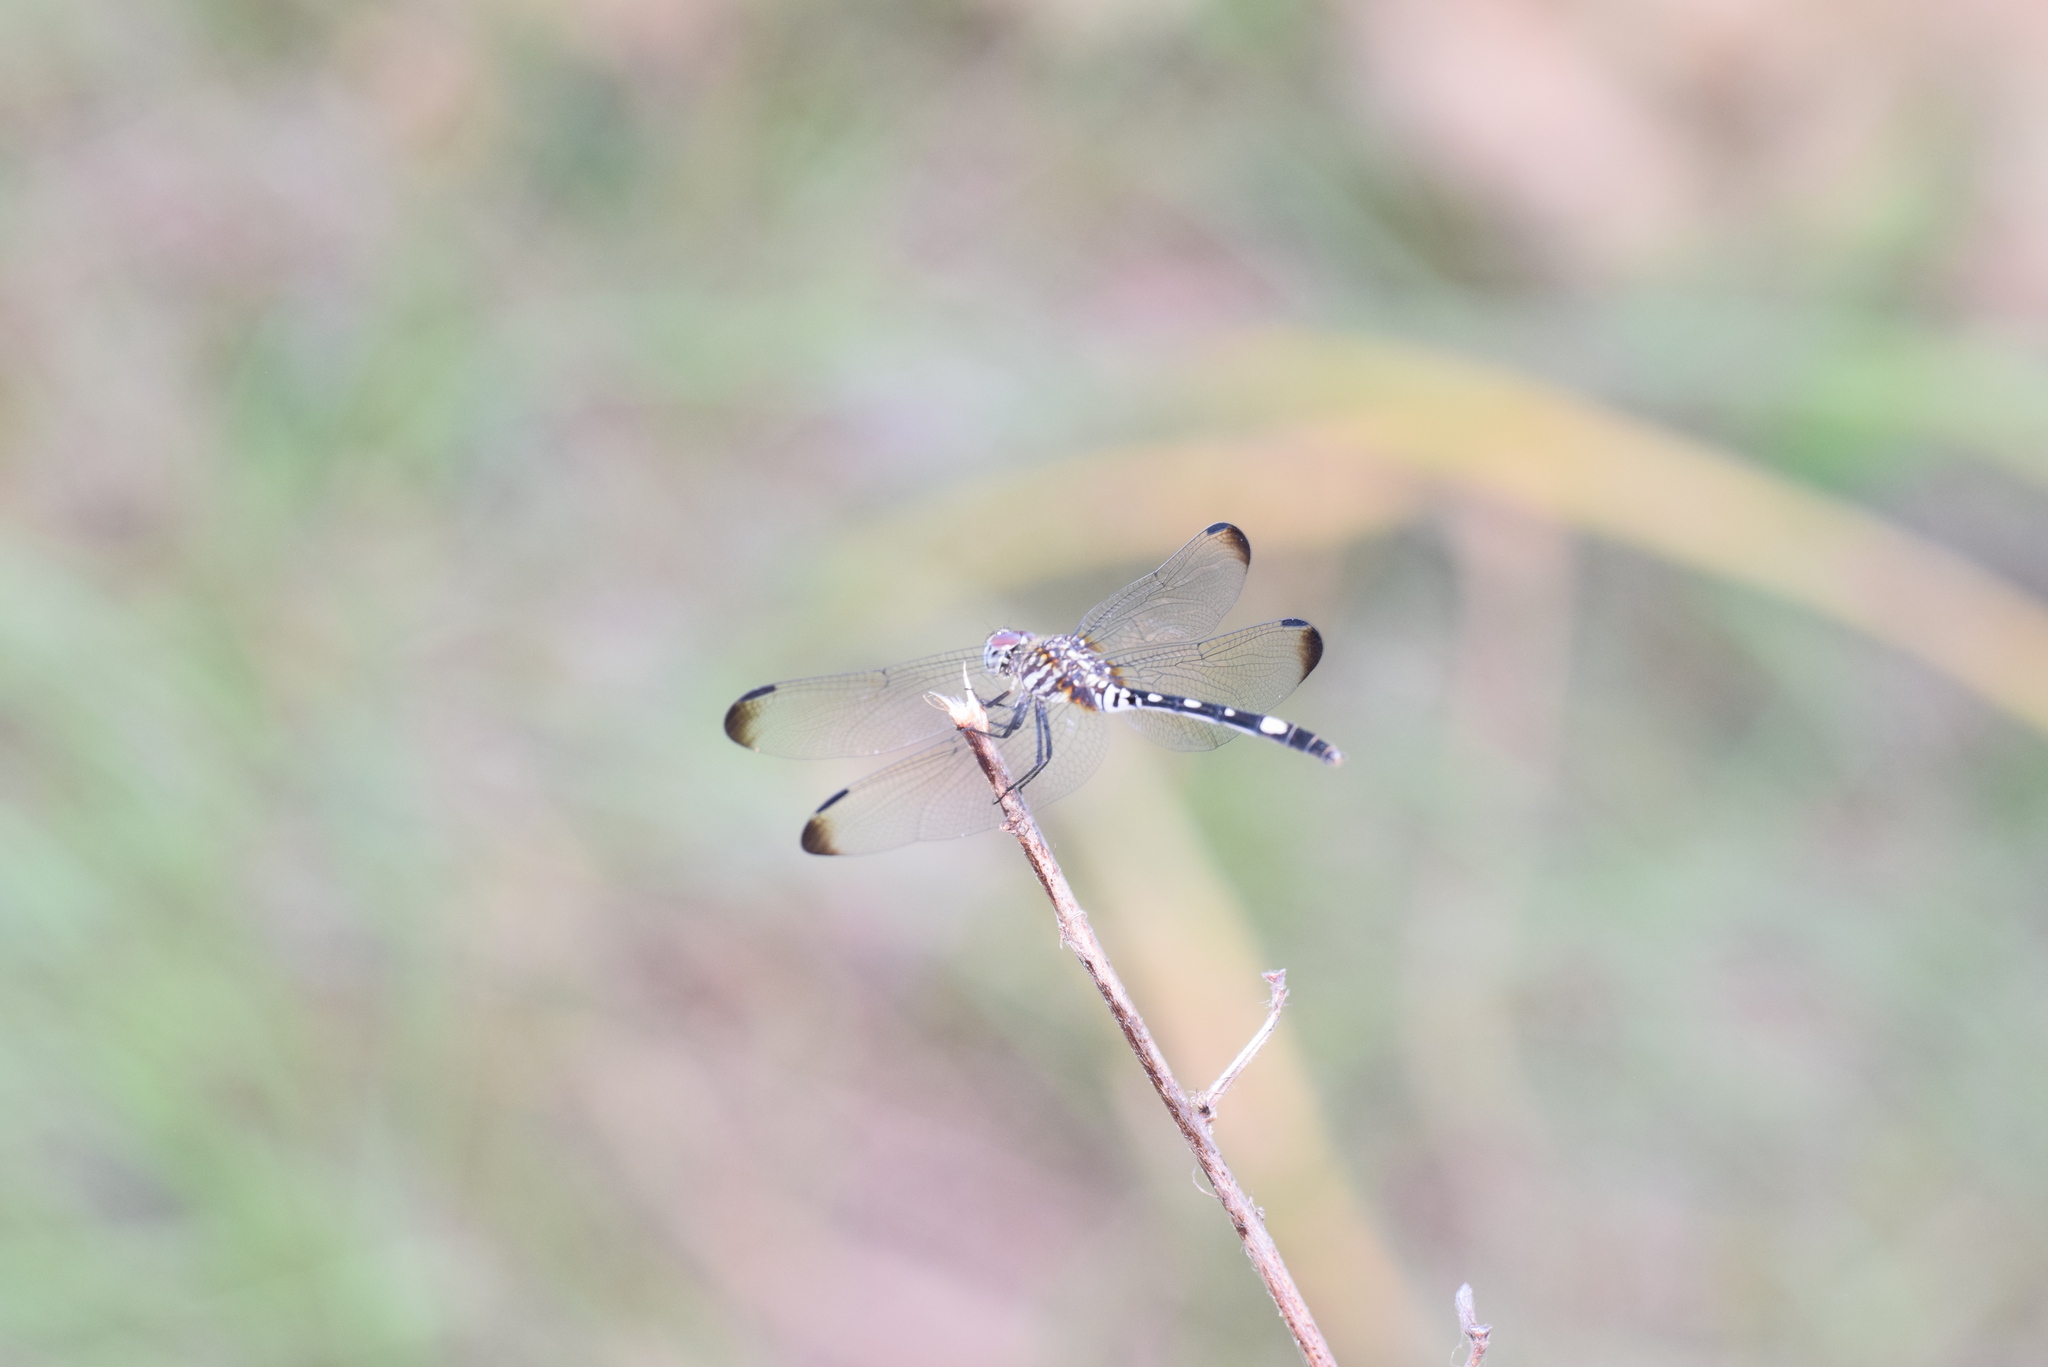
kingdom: Animalia
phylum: Arthropoda
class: Insecta
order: Odonata
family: Libellulidae
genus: Dythemis
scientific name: Dythemis velox
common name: Swift setwing
